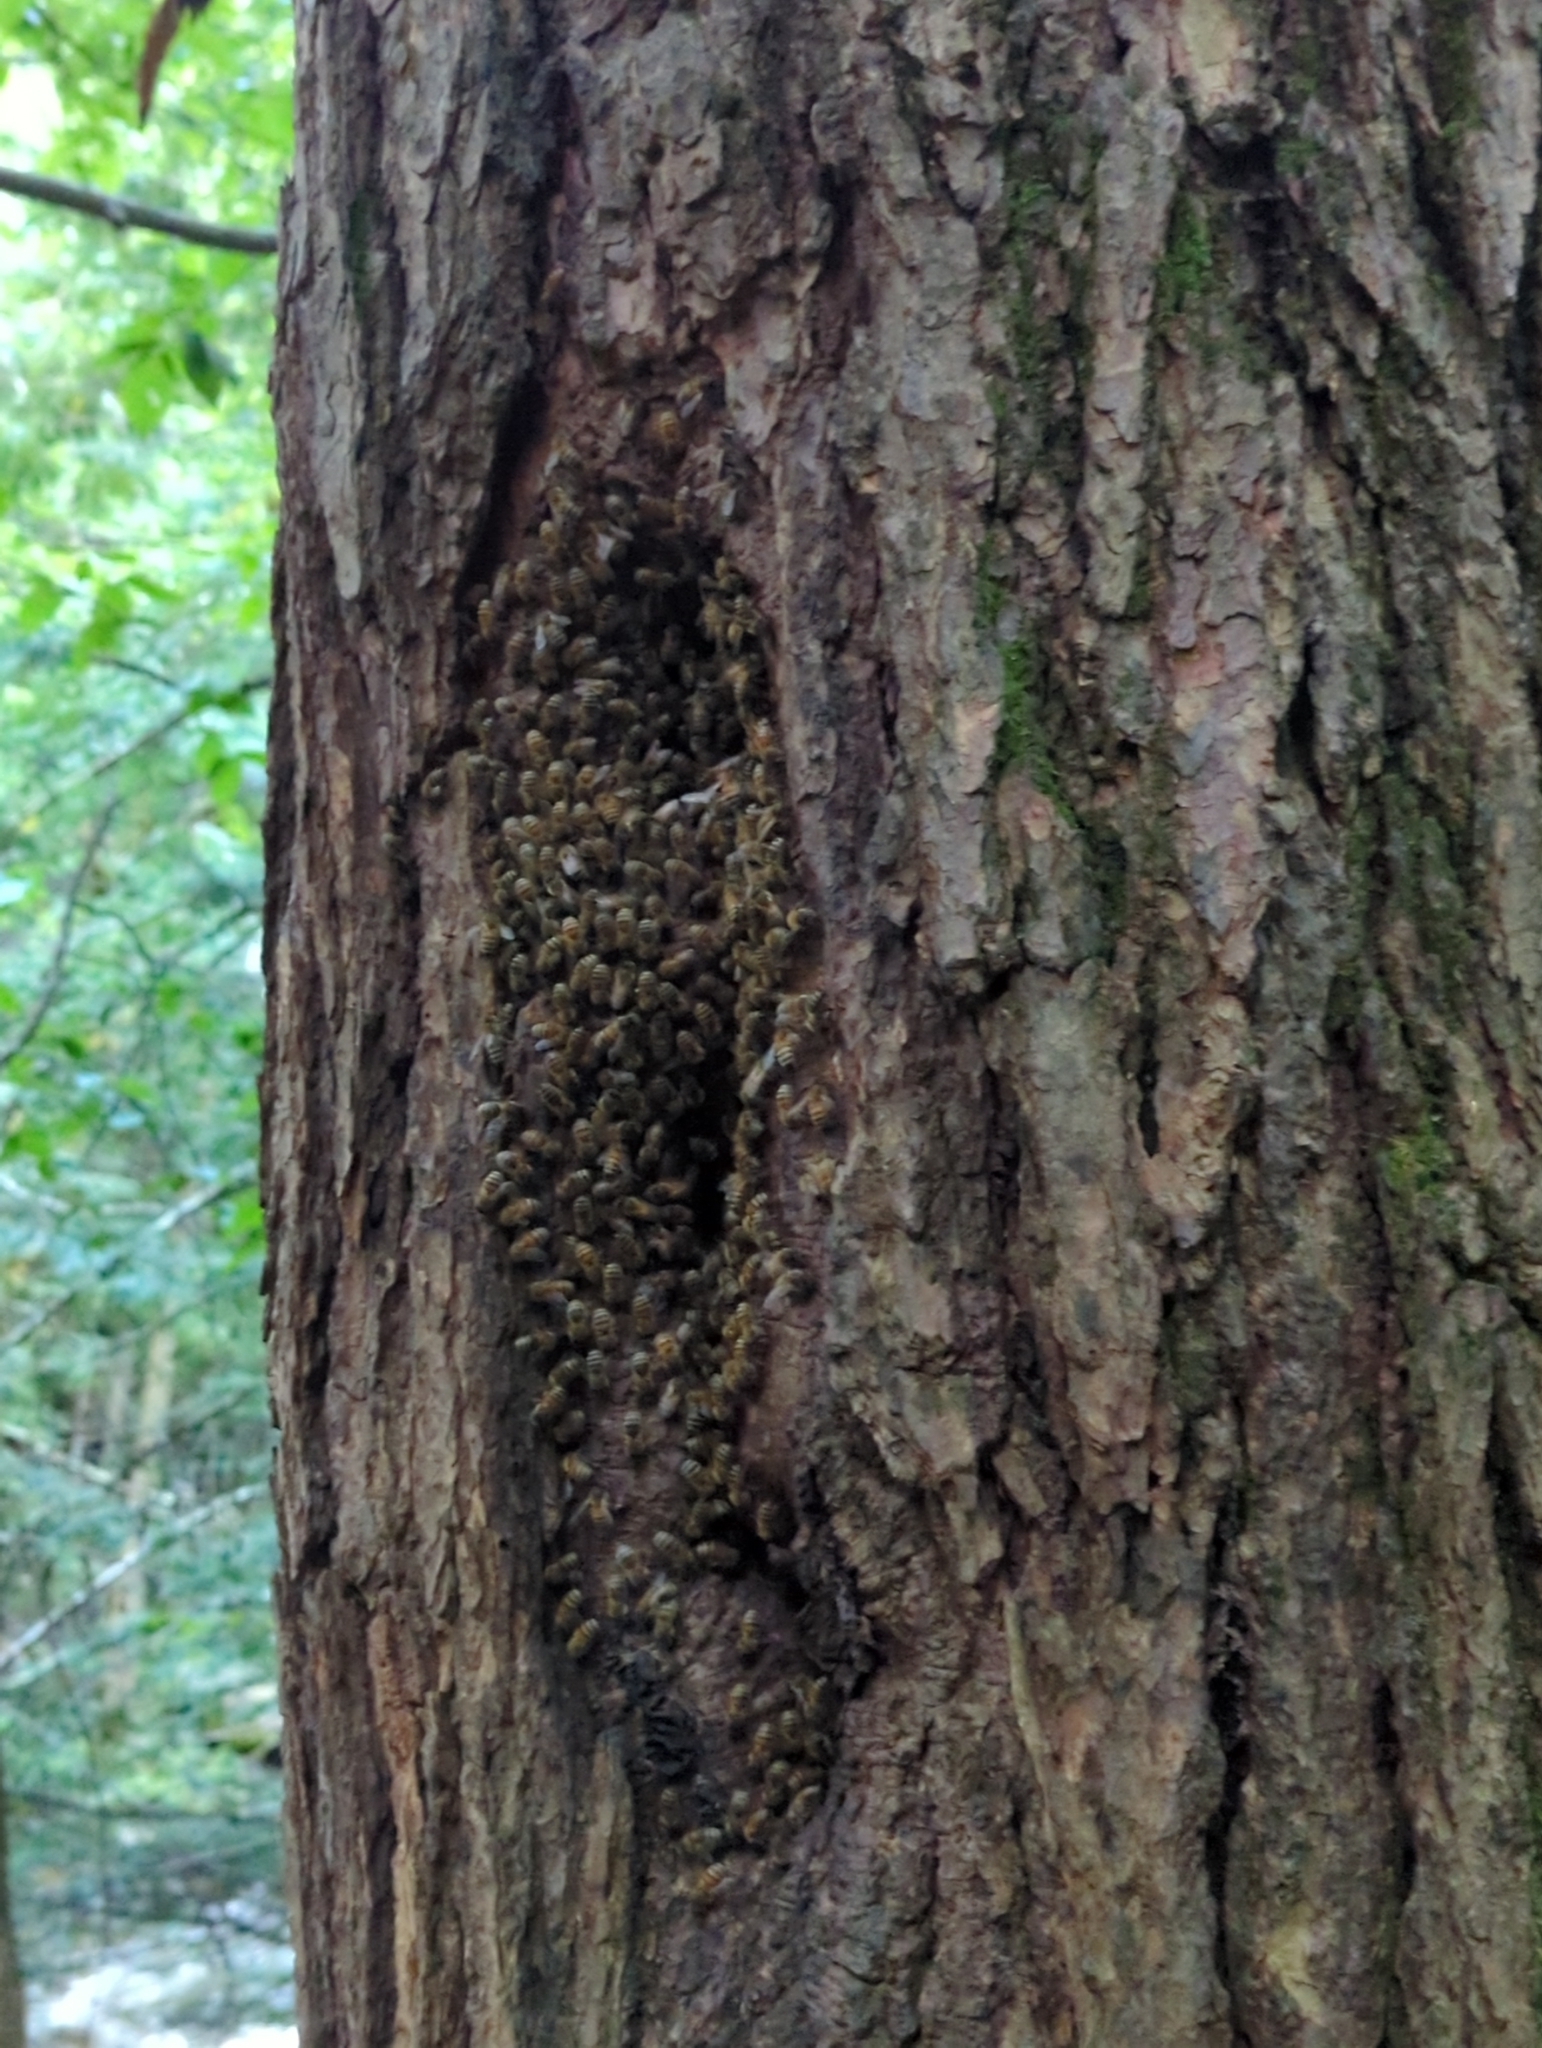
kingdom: Animalia
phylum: Arthropoda
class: Insecta
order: Hymenoptera
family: Apidae
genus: Apis
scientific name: Apis mellifera
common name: Honey bee
